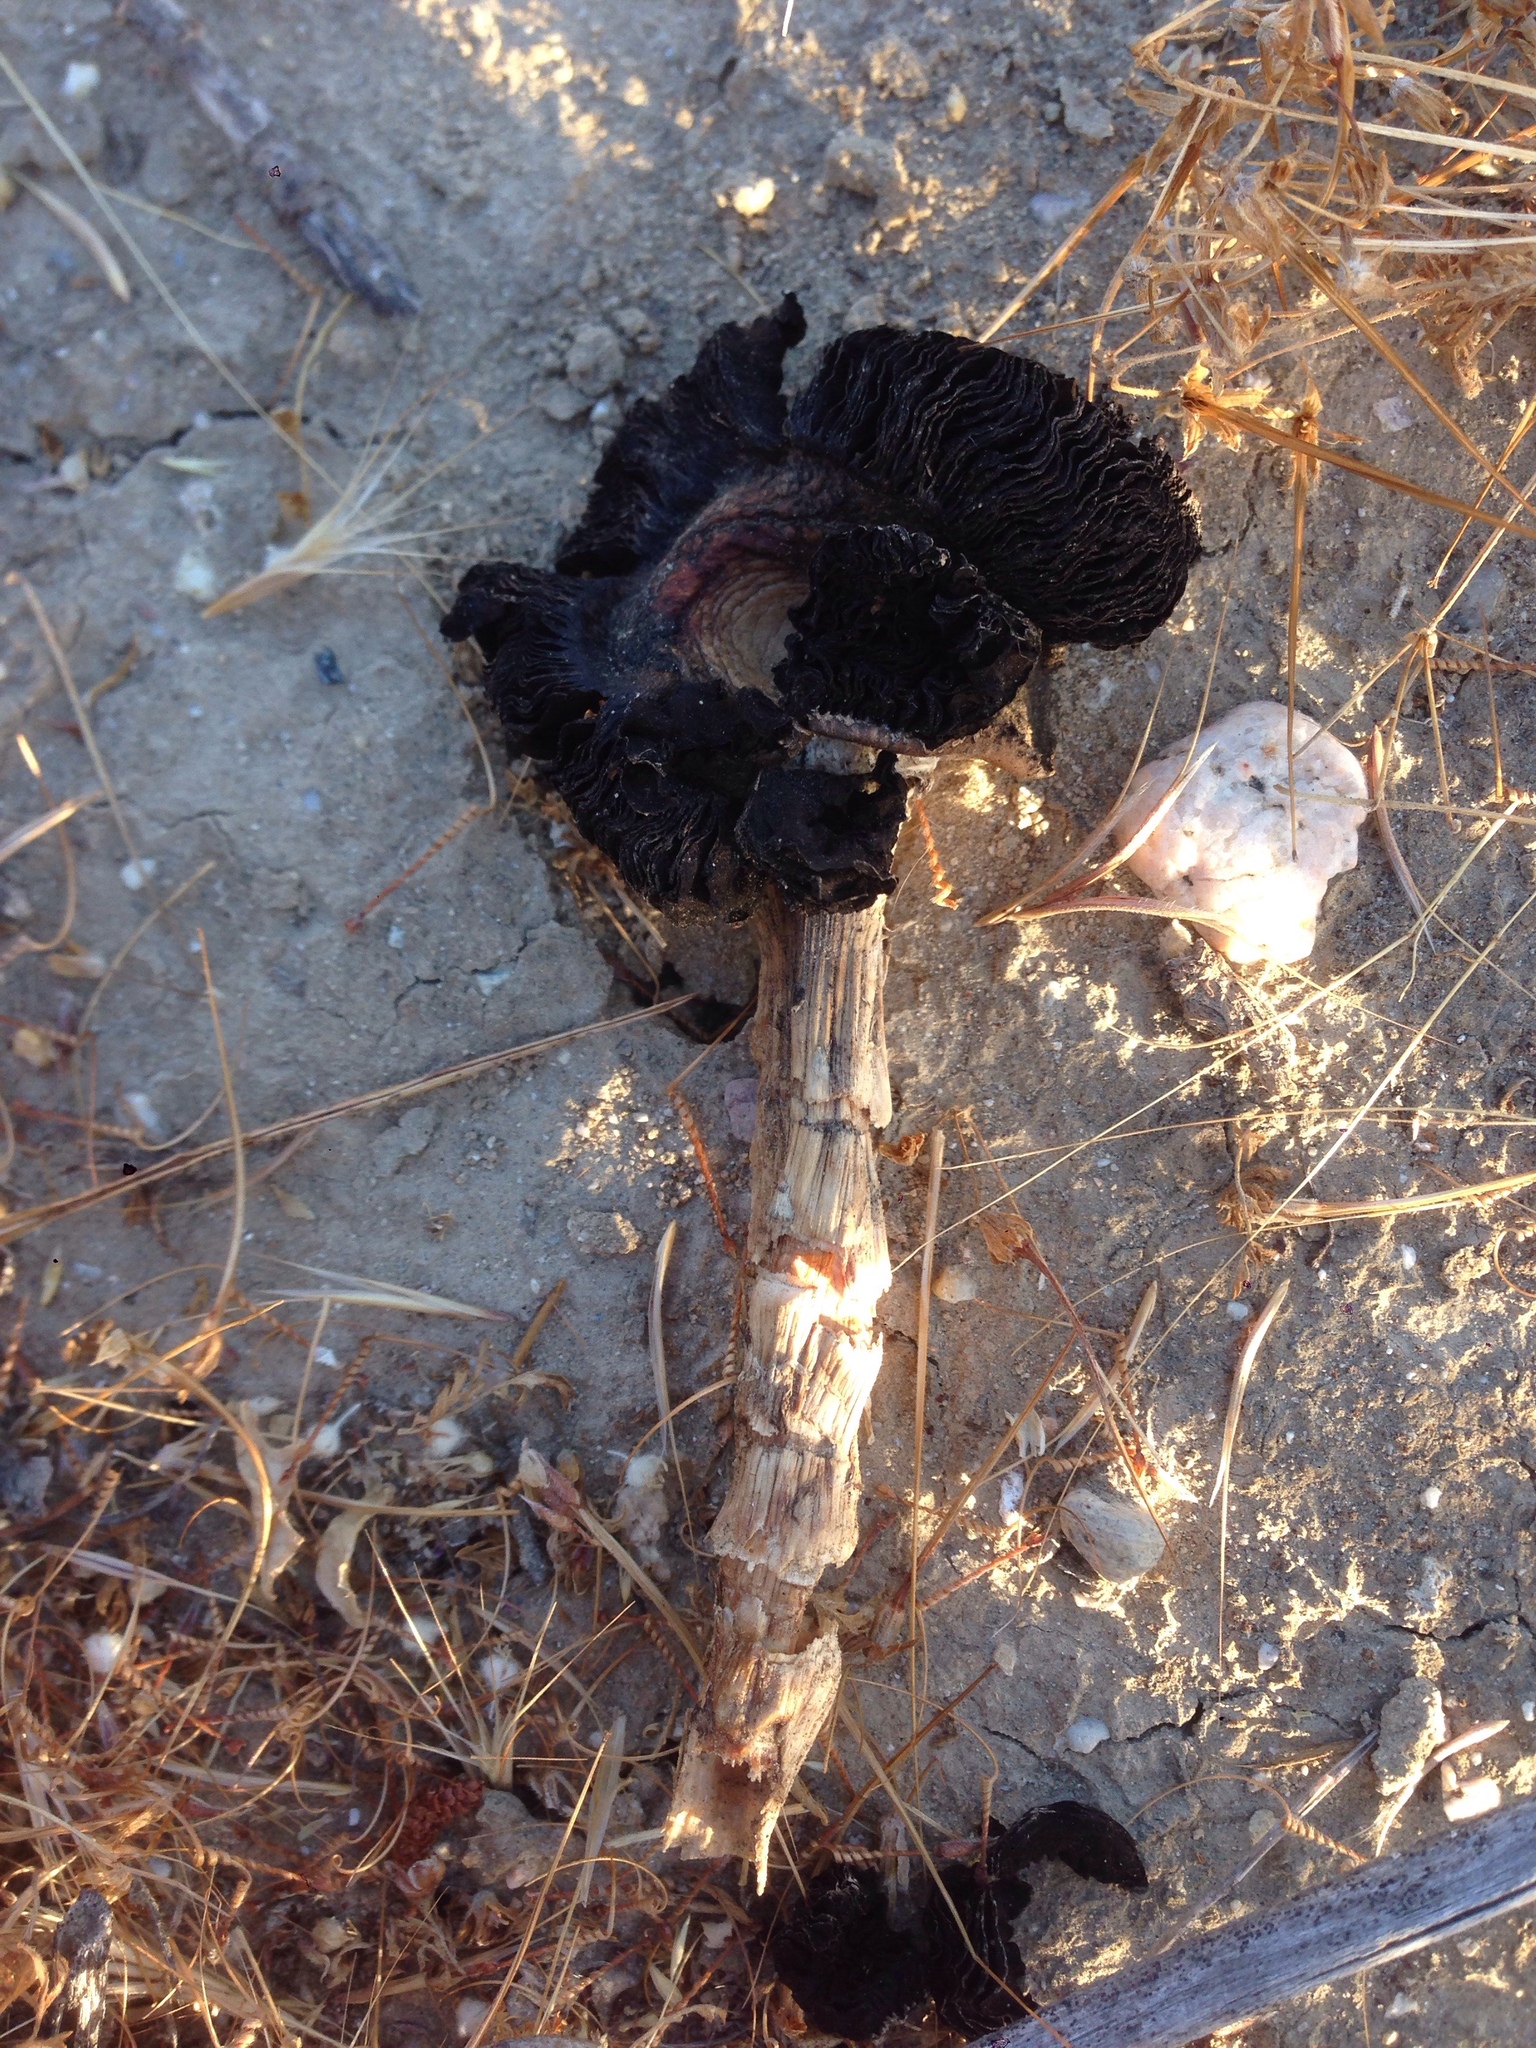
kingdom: Fungi
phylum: Basidiomycota
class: Agaricomycetes
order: Agaricales
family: Agaricaceae
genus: Montagnea
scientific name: Montagnea arenaria
